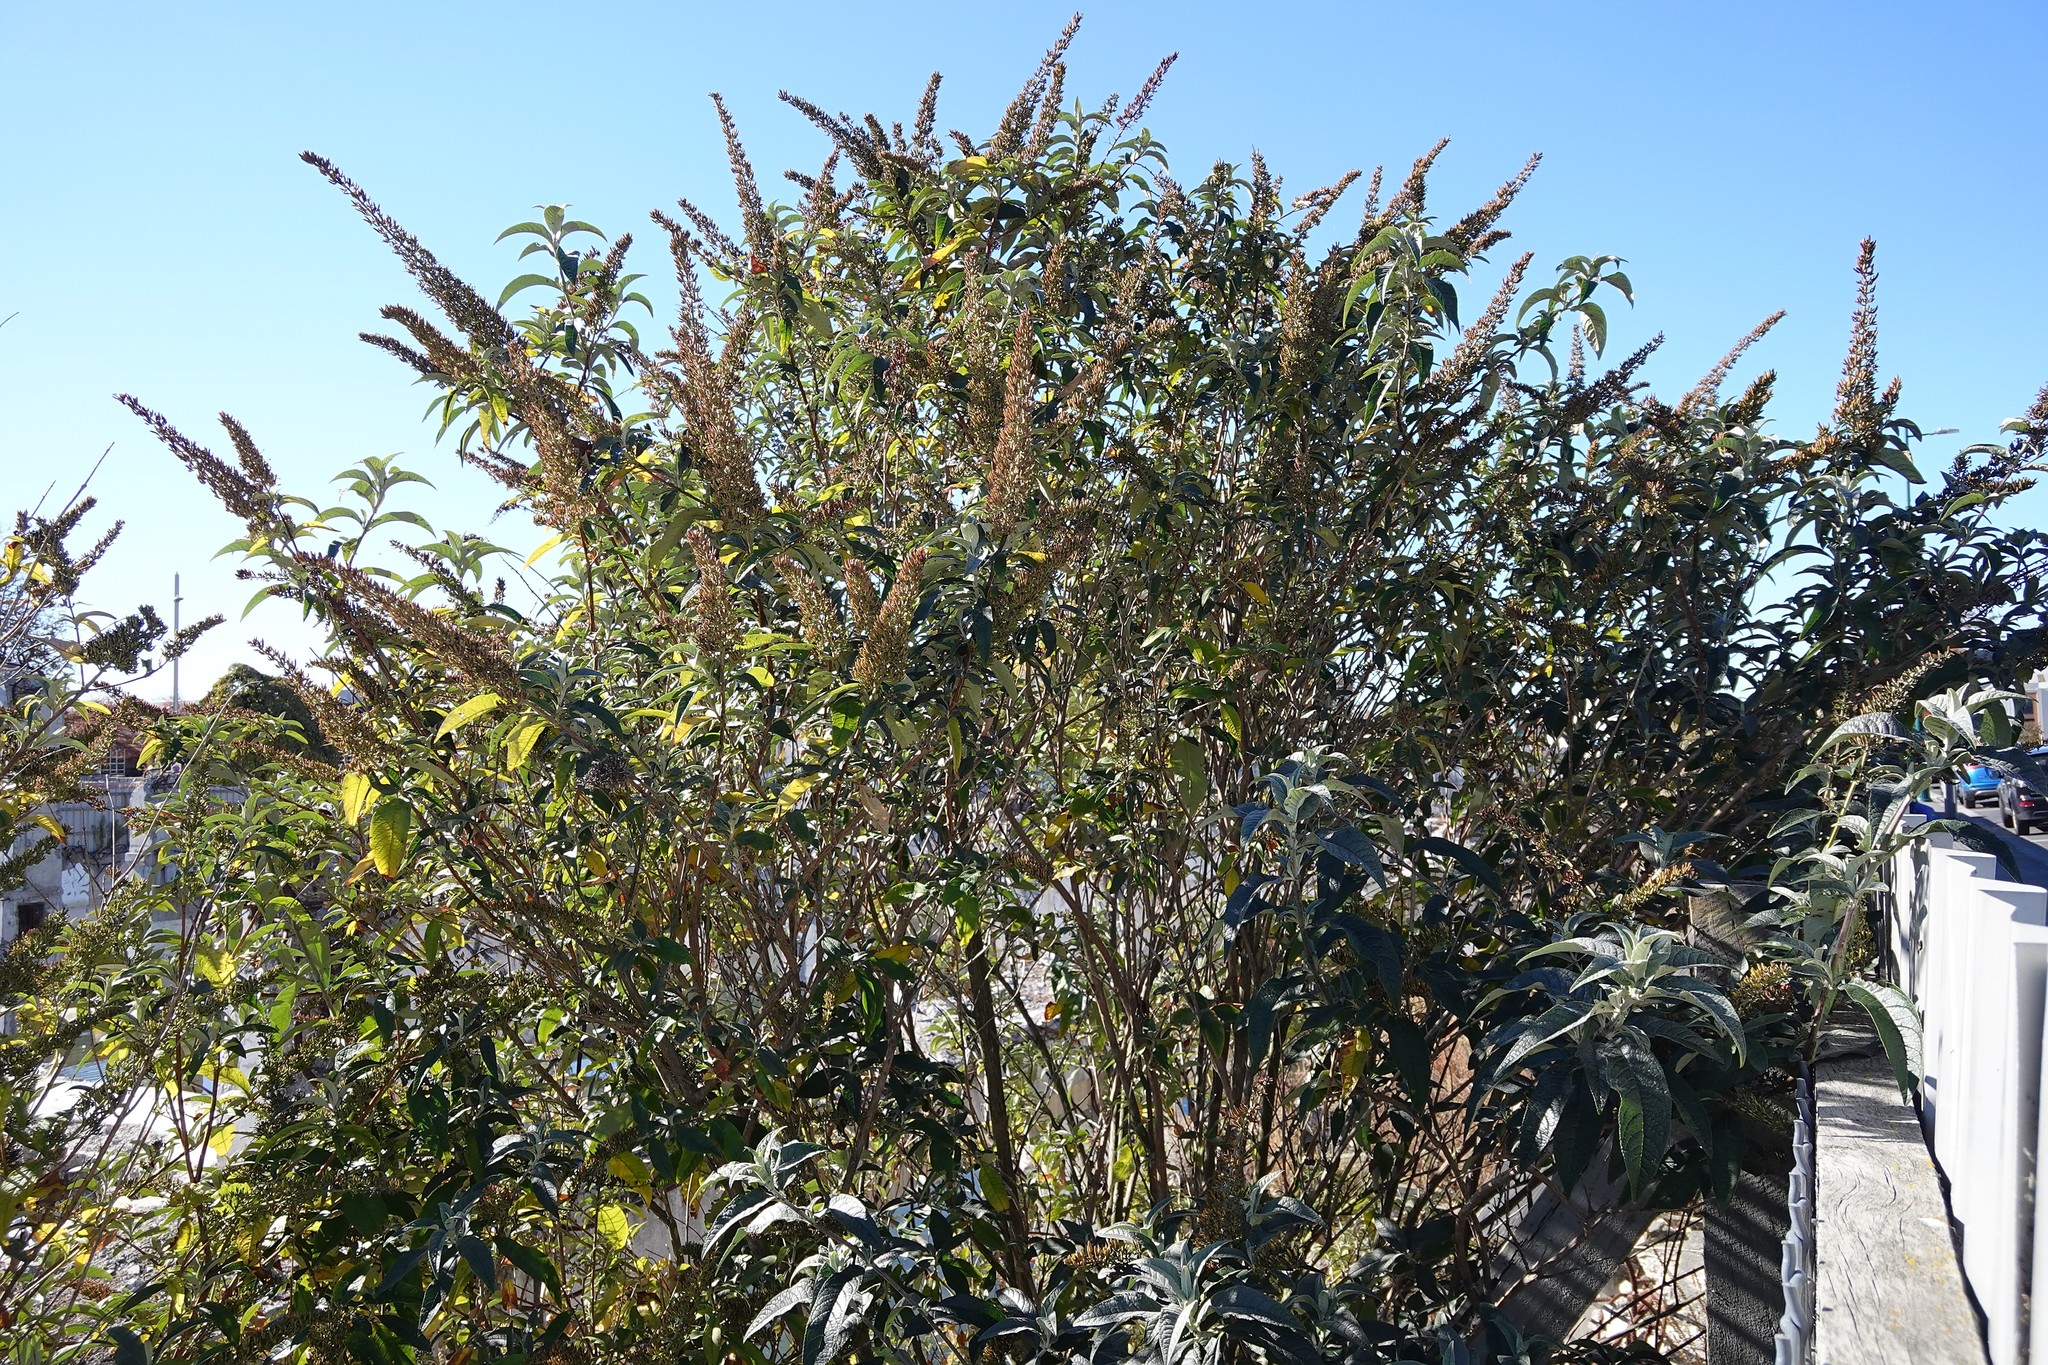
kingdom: Plantae
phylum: Tracheophyta
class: Magnoliopsida
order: Lamiales
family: Scrophulariaceae
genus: Buddleja
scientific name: Buddleja davidii
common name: Butterfly-bush
